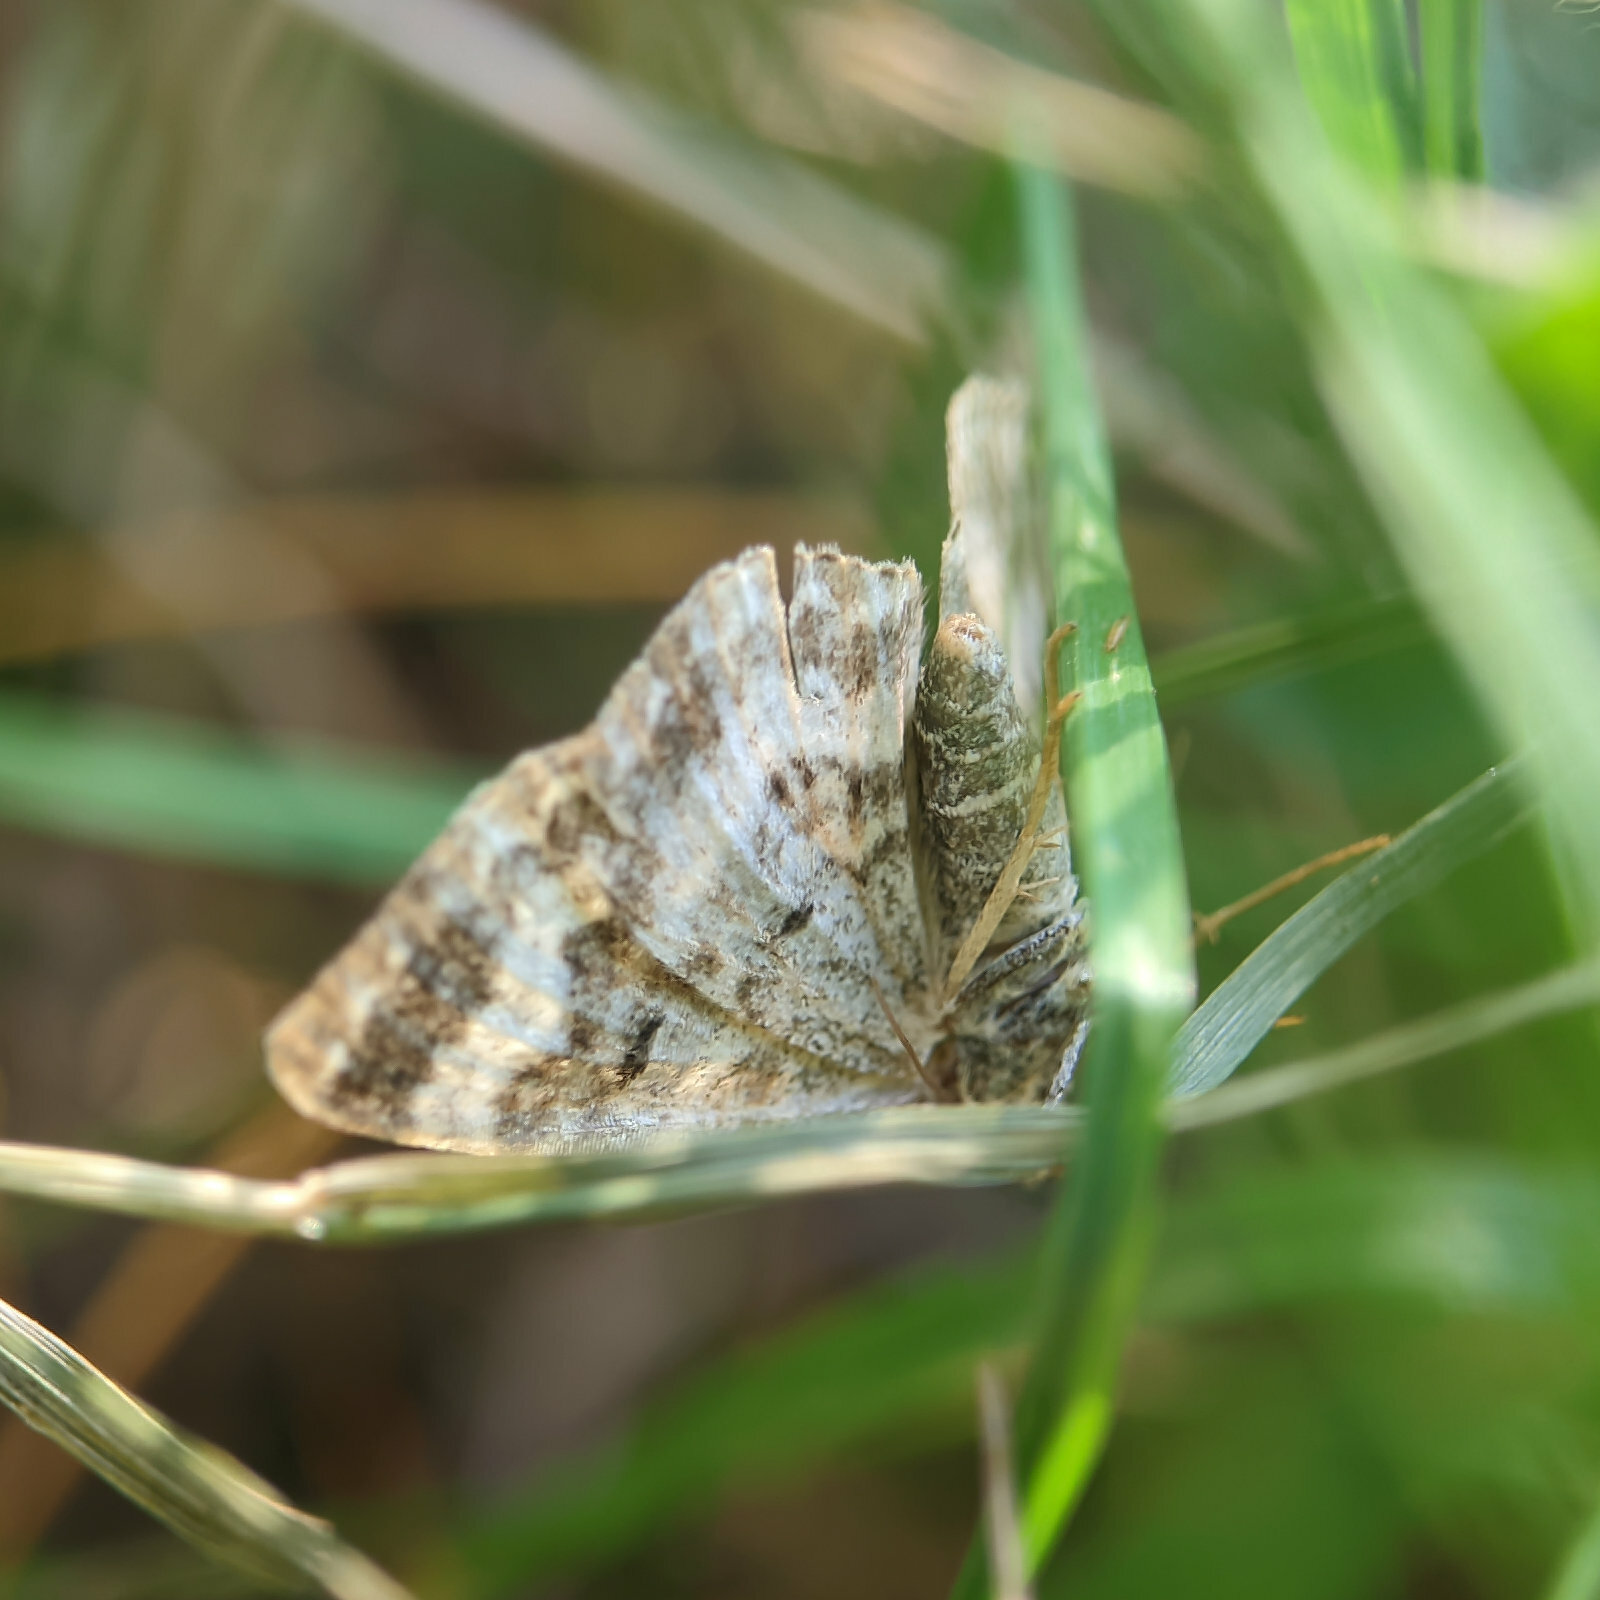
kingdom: Animalia
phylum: Arthropoda
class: Insecta
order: Lepidoptera
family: Geometridae
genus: Epirrhoe
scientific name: Epirrhoe alternata
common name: Common carpet
